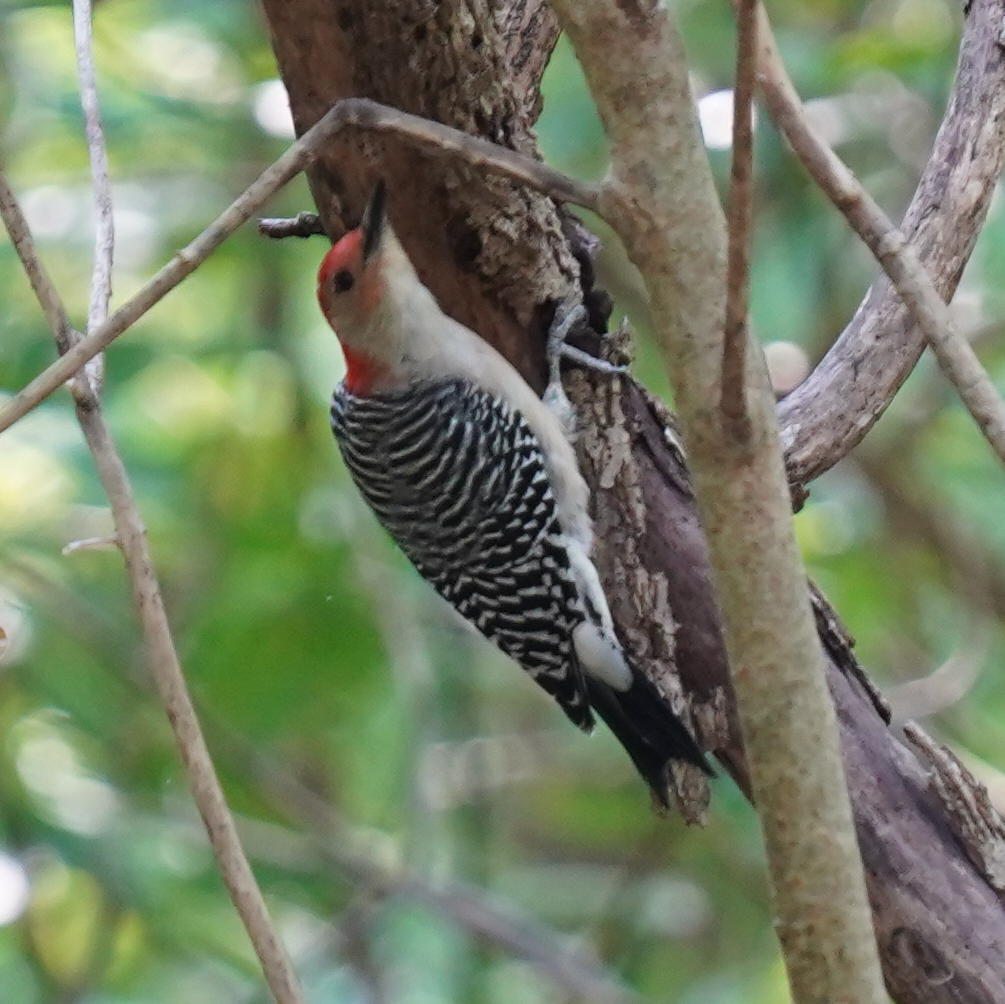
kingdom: Animalia
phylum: Chordata
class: Aves
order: Piciformes
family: Picidae
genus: Melanerpes
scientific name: Melanerpes carolinus
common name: Red-bellied woodpecker
